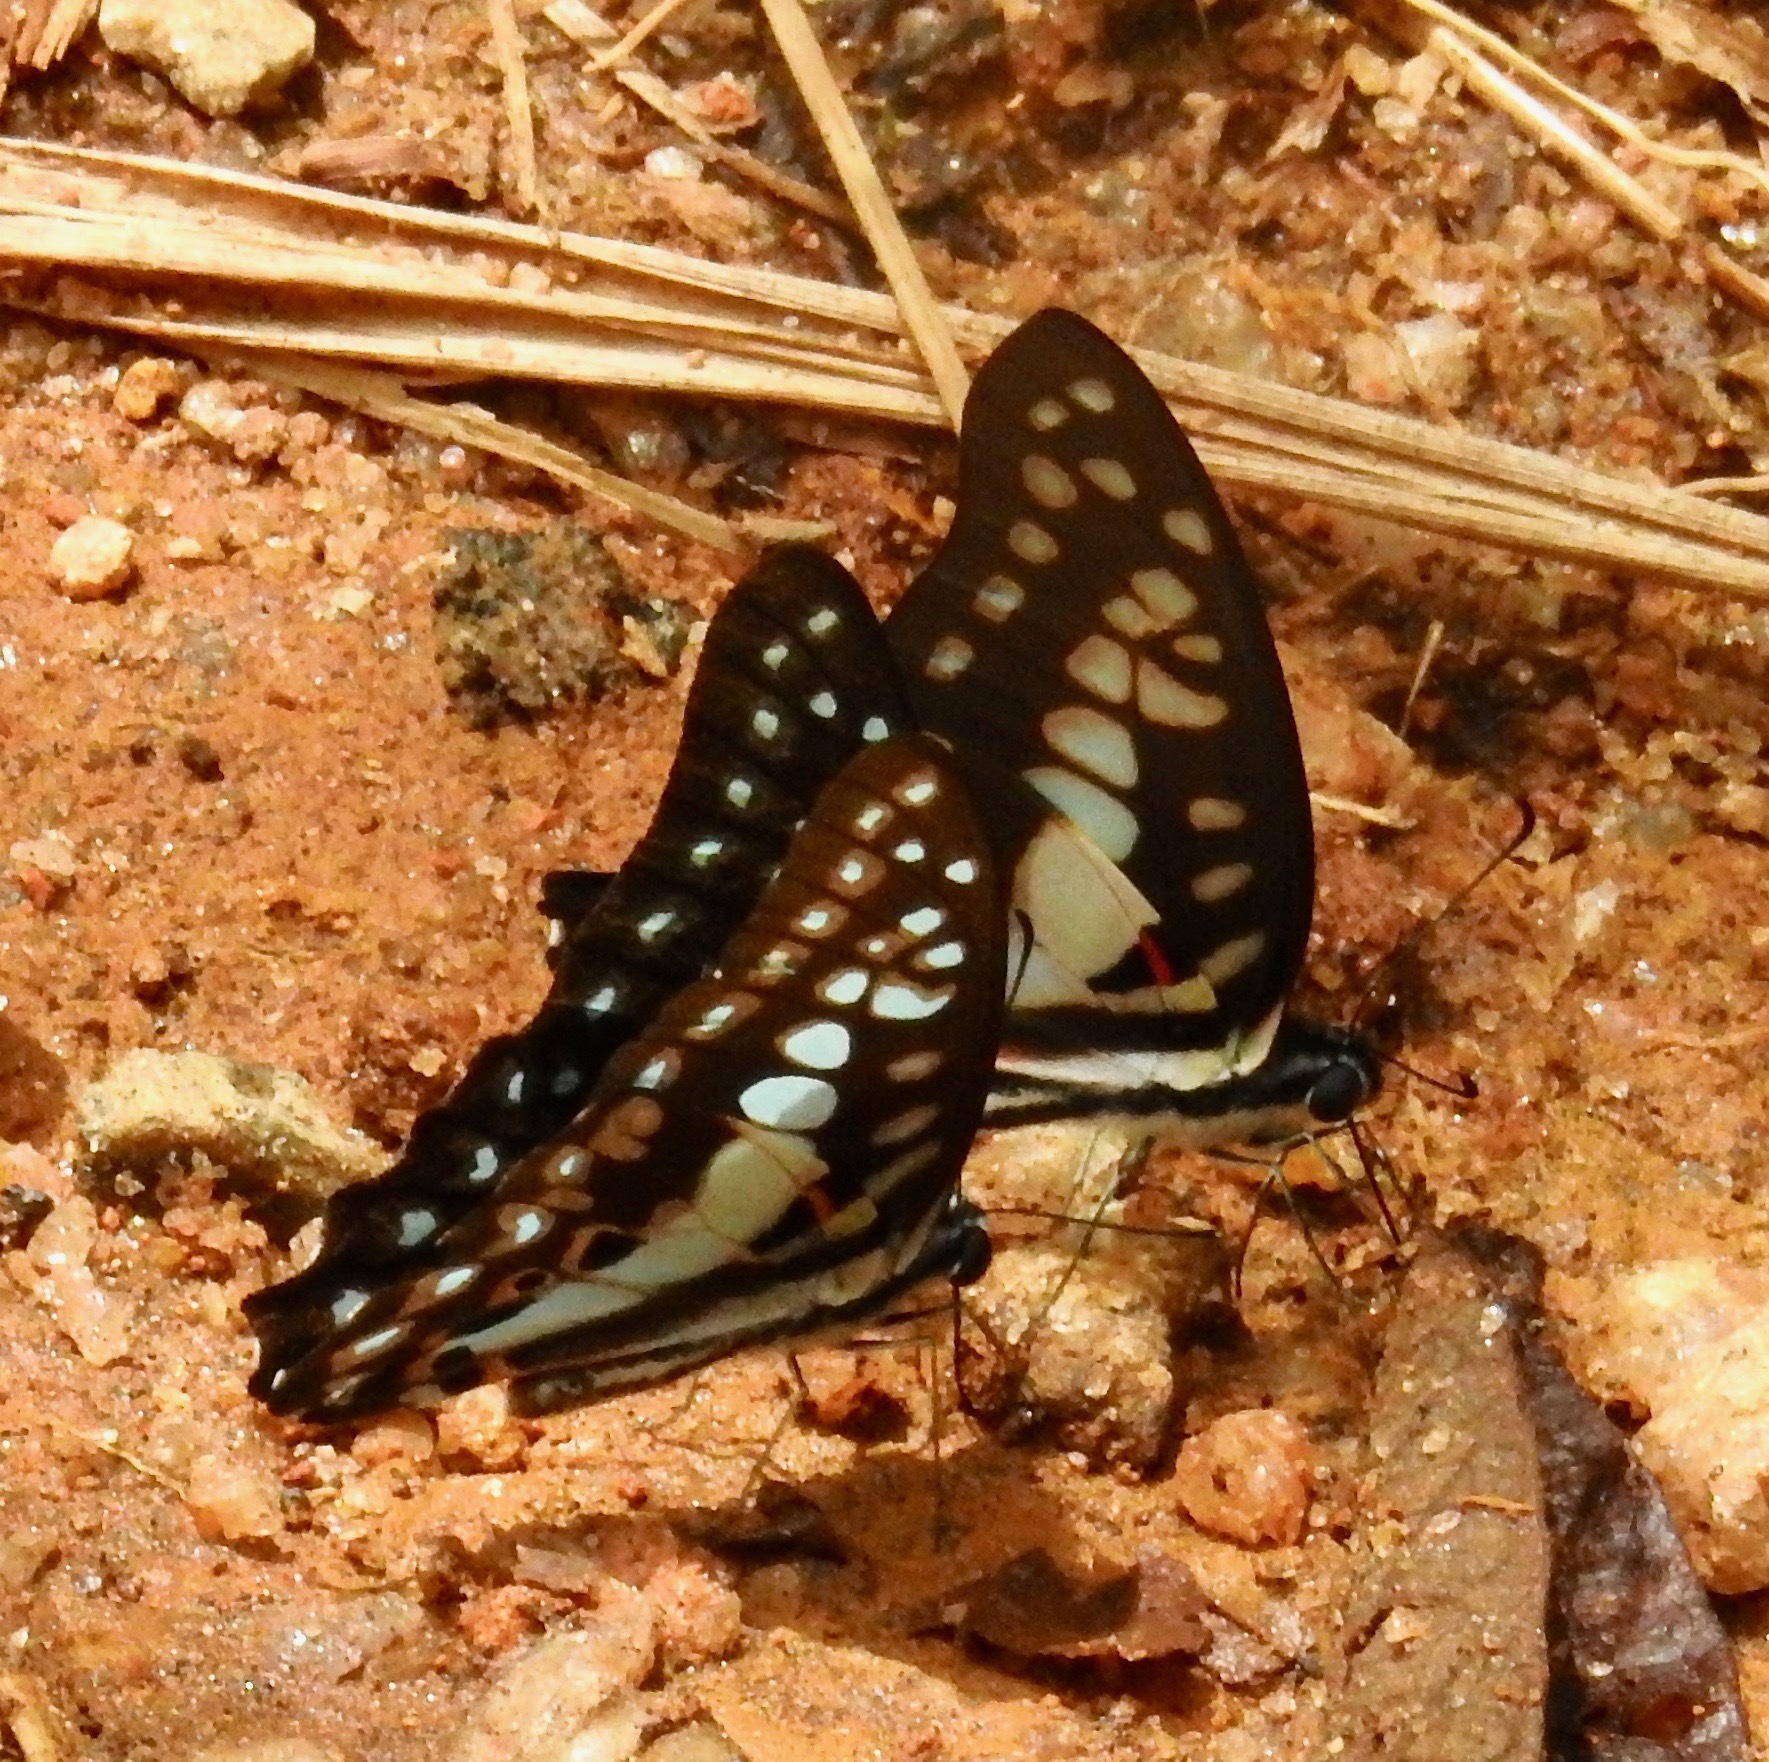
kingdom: Animalia
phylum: Arthropoda
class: Insecta
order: Lepidoptera
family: Papilionidae
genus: Graphium
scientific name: Graphium doson
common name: Common jay
